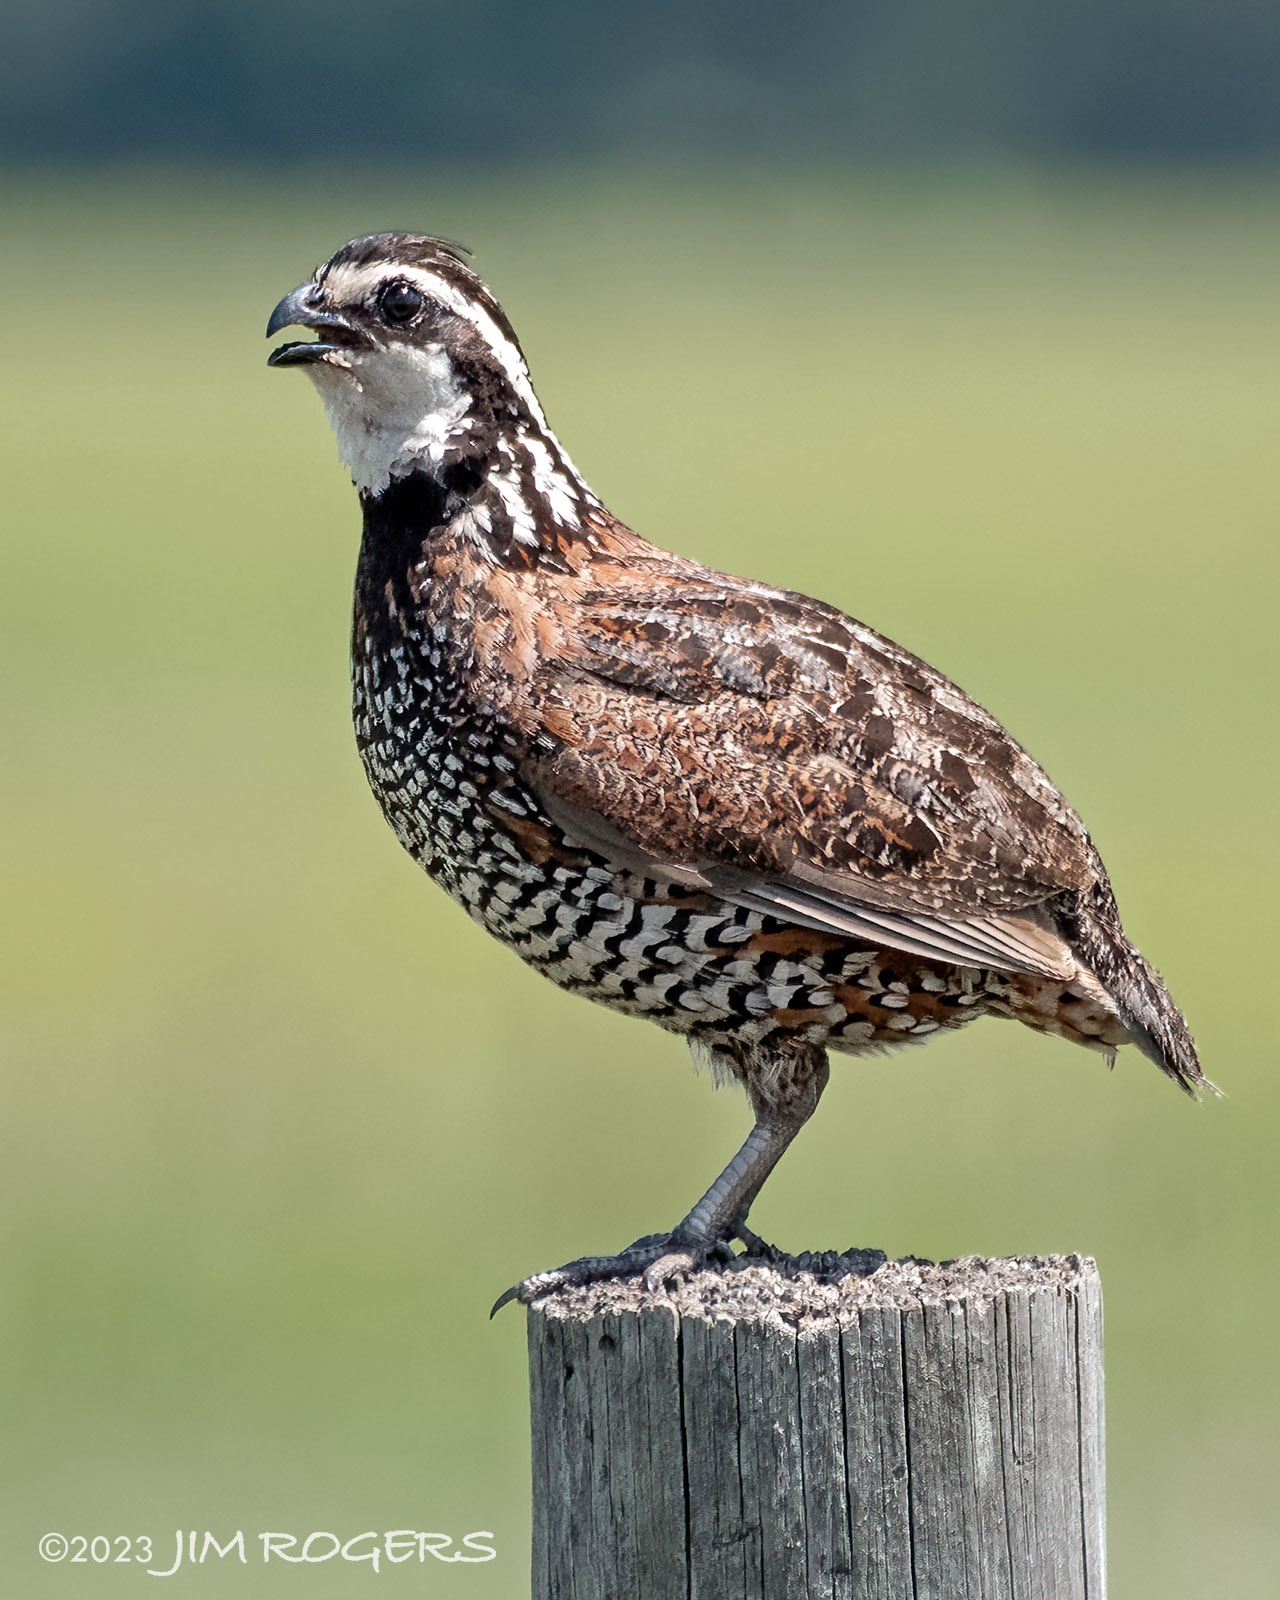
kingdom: Animalia
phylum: Chordata
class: Aves
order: Galliformes
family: Odontophoridae
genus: Colinus
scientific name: Colinus virginianus
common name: Northern bobwhite
